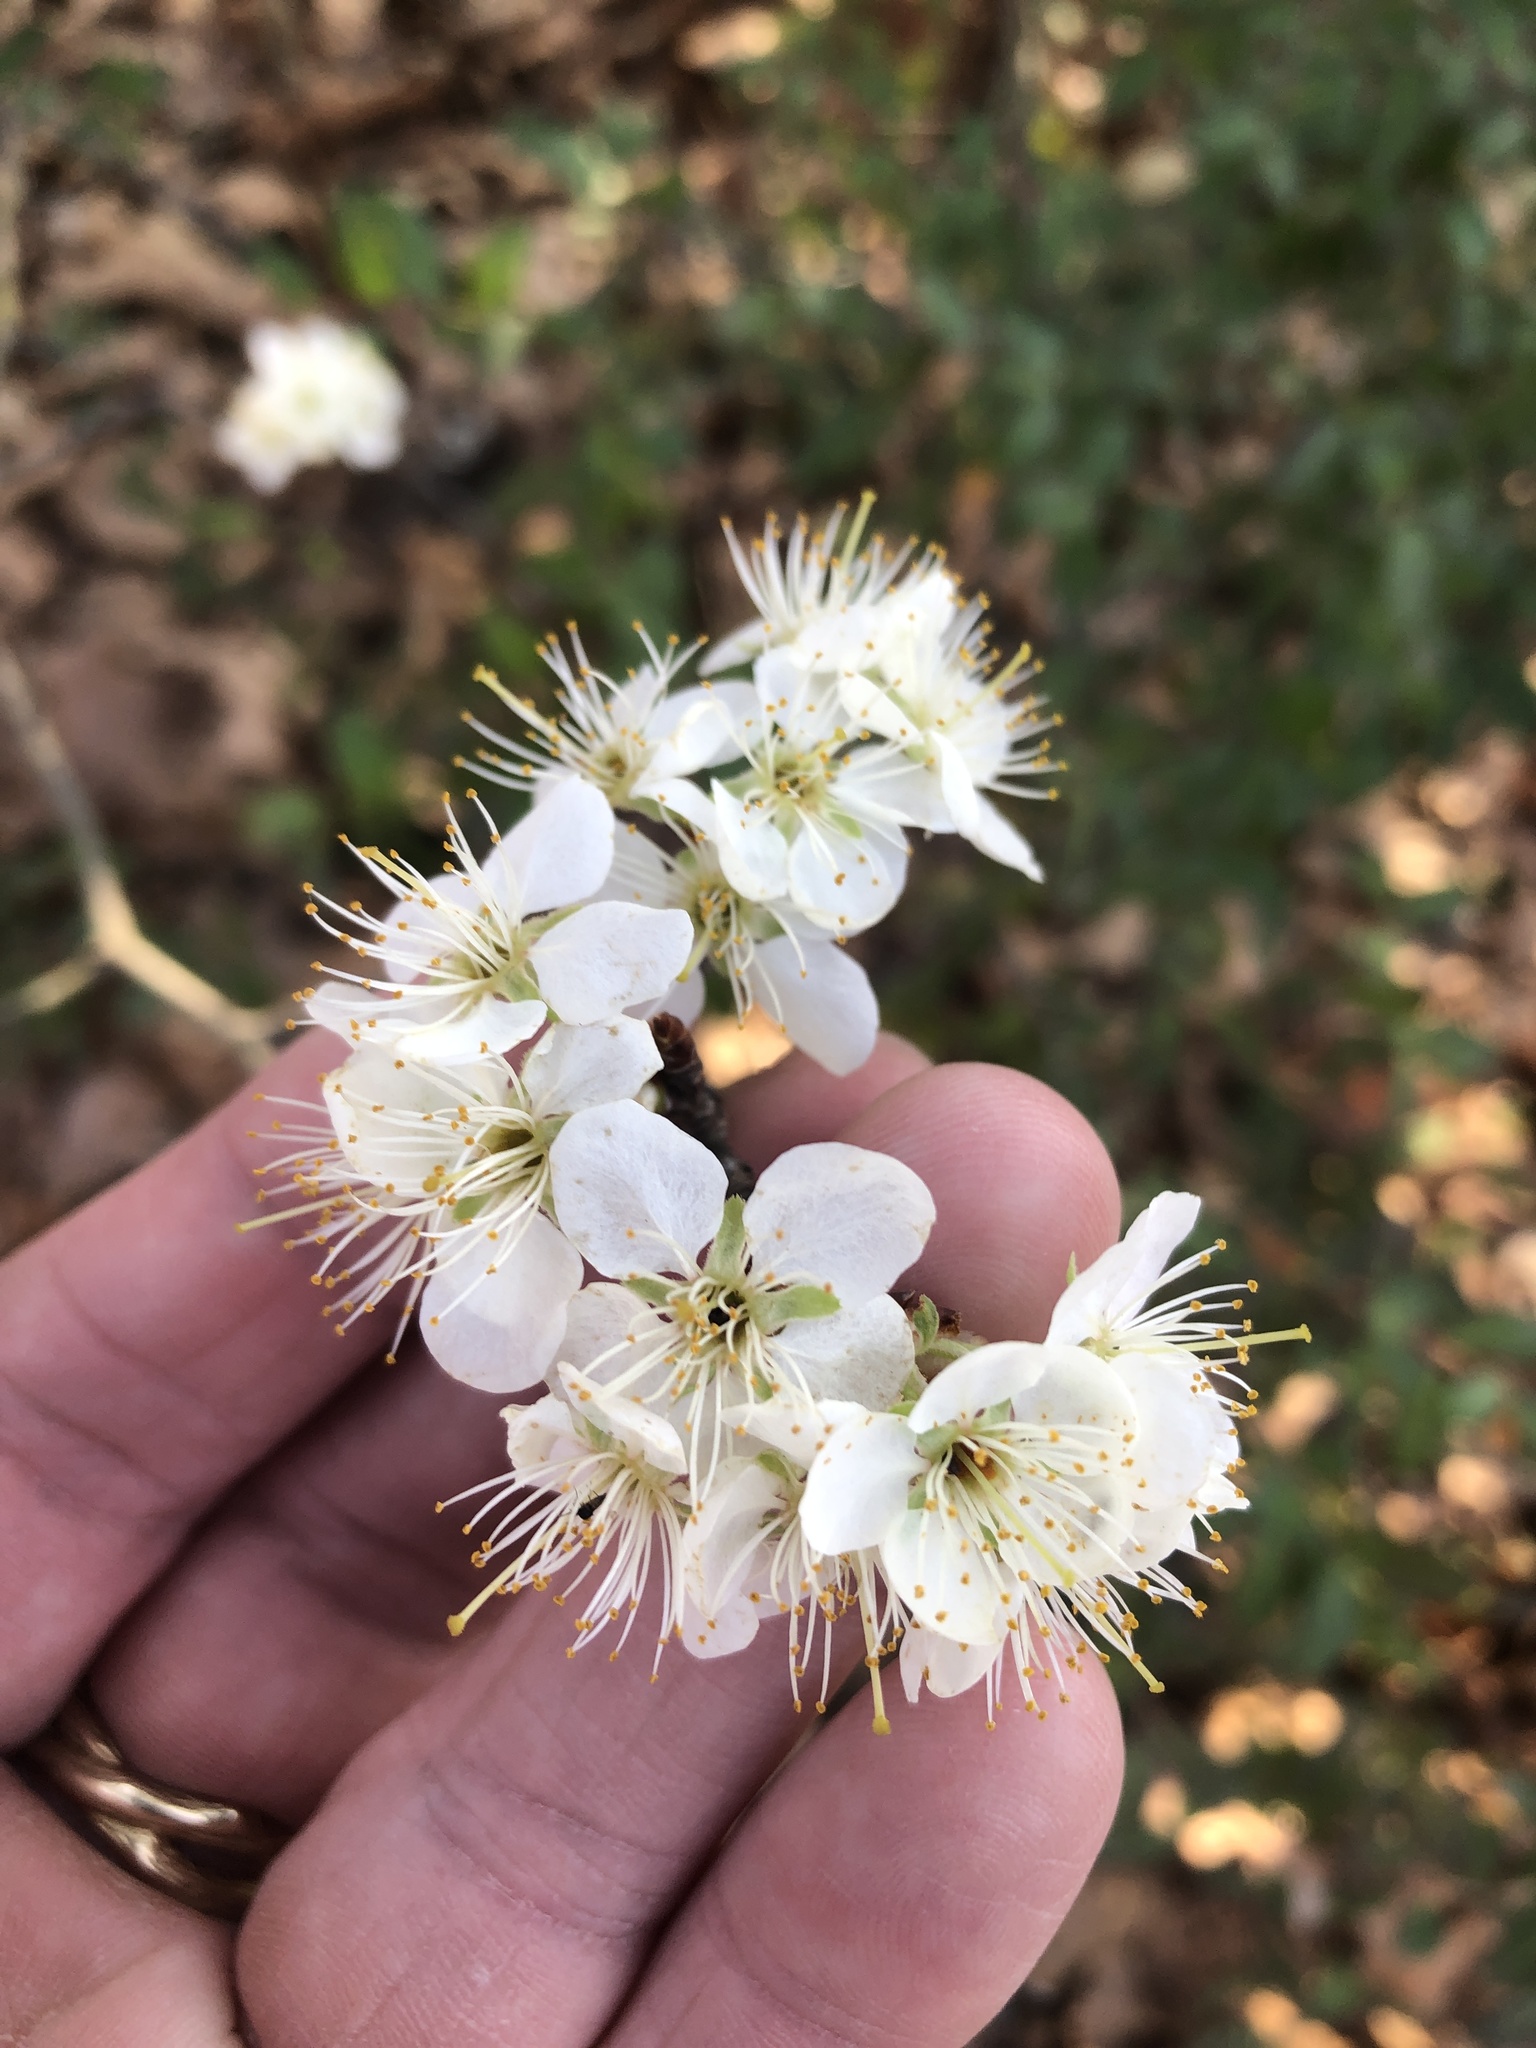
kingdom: Plantae
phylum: Tracheophyta
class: Magnoliopsida
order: Rosales
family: Rosaceae
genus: Prunus
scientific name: Prunus mexicana
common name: Mexican plum
